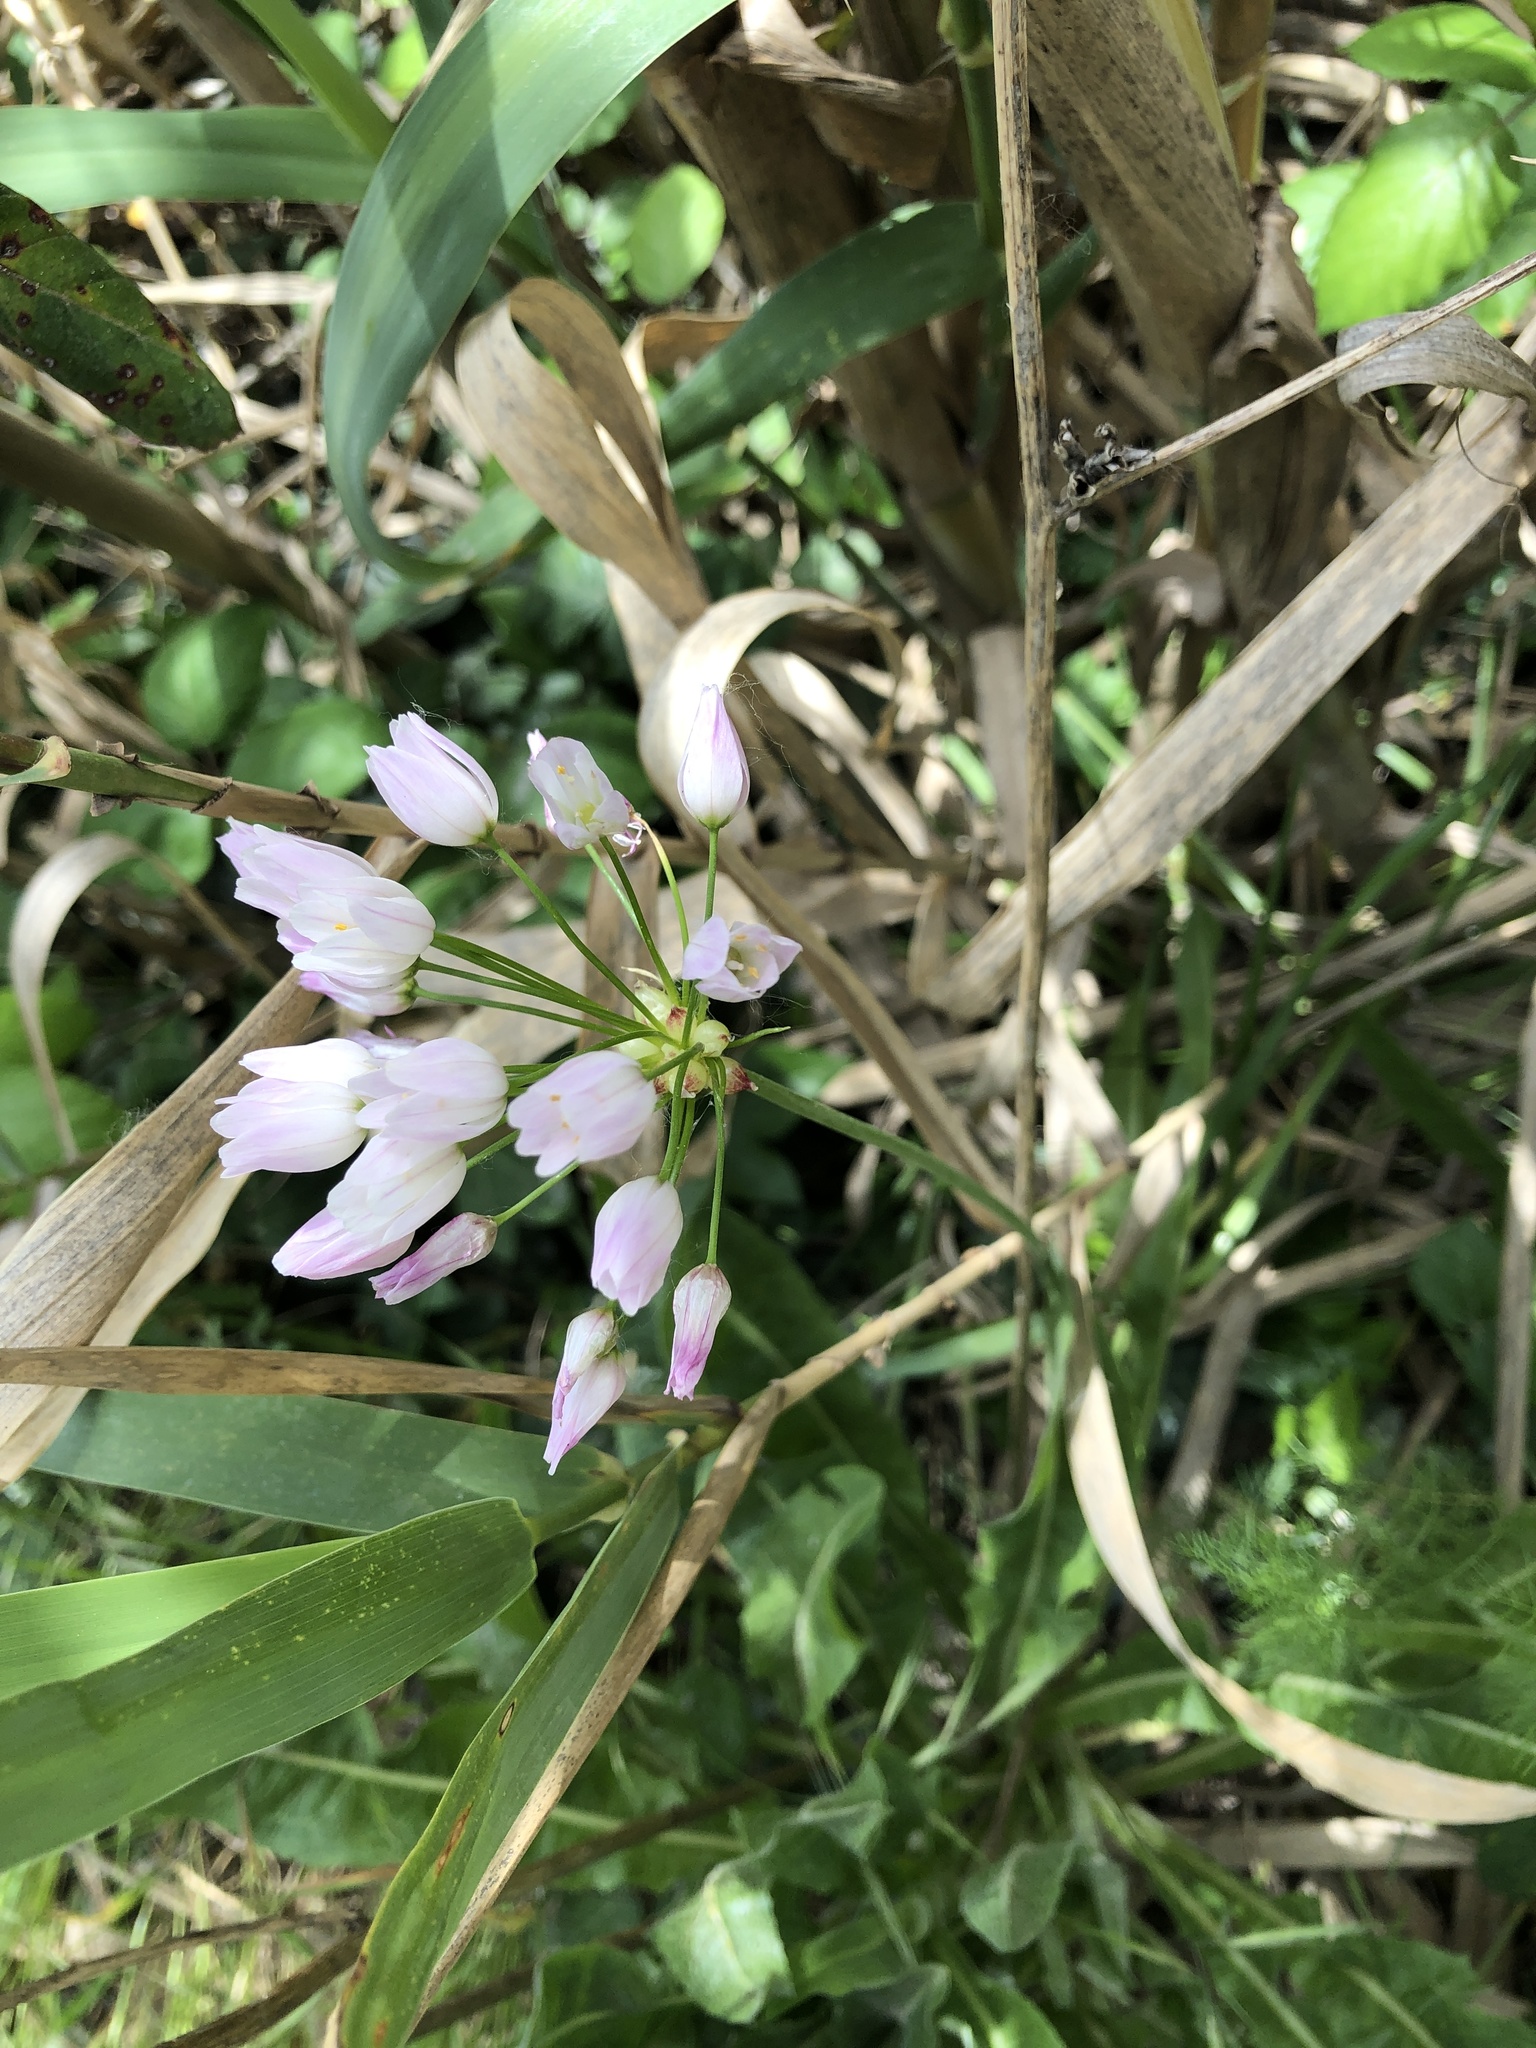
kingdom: Plantae
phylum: Tracheophyta
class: Liliopsida
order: Asparagales
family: Amaryllidaceae
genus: Allium
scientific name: Allium roseum
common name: Rosy garlic
